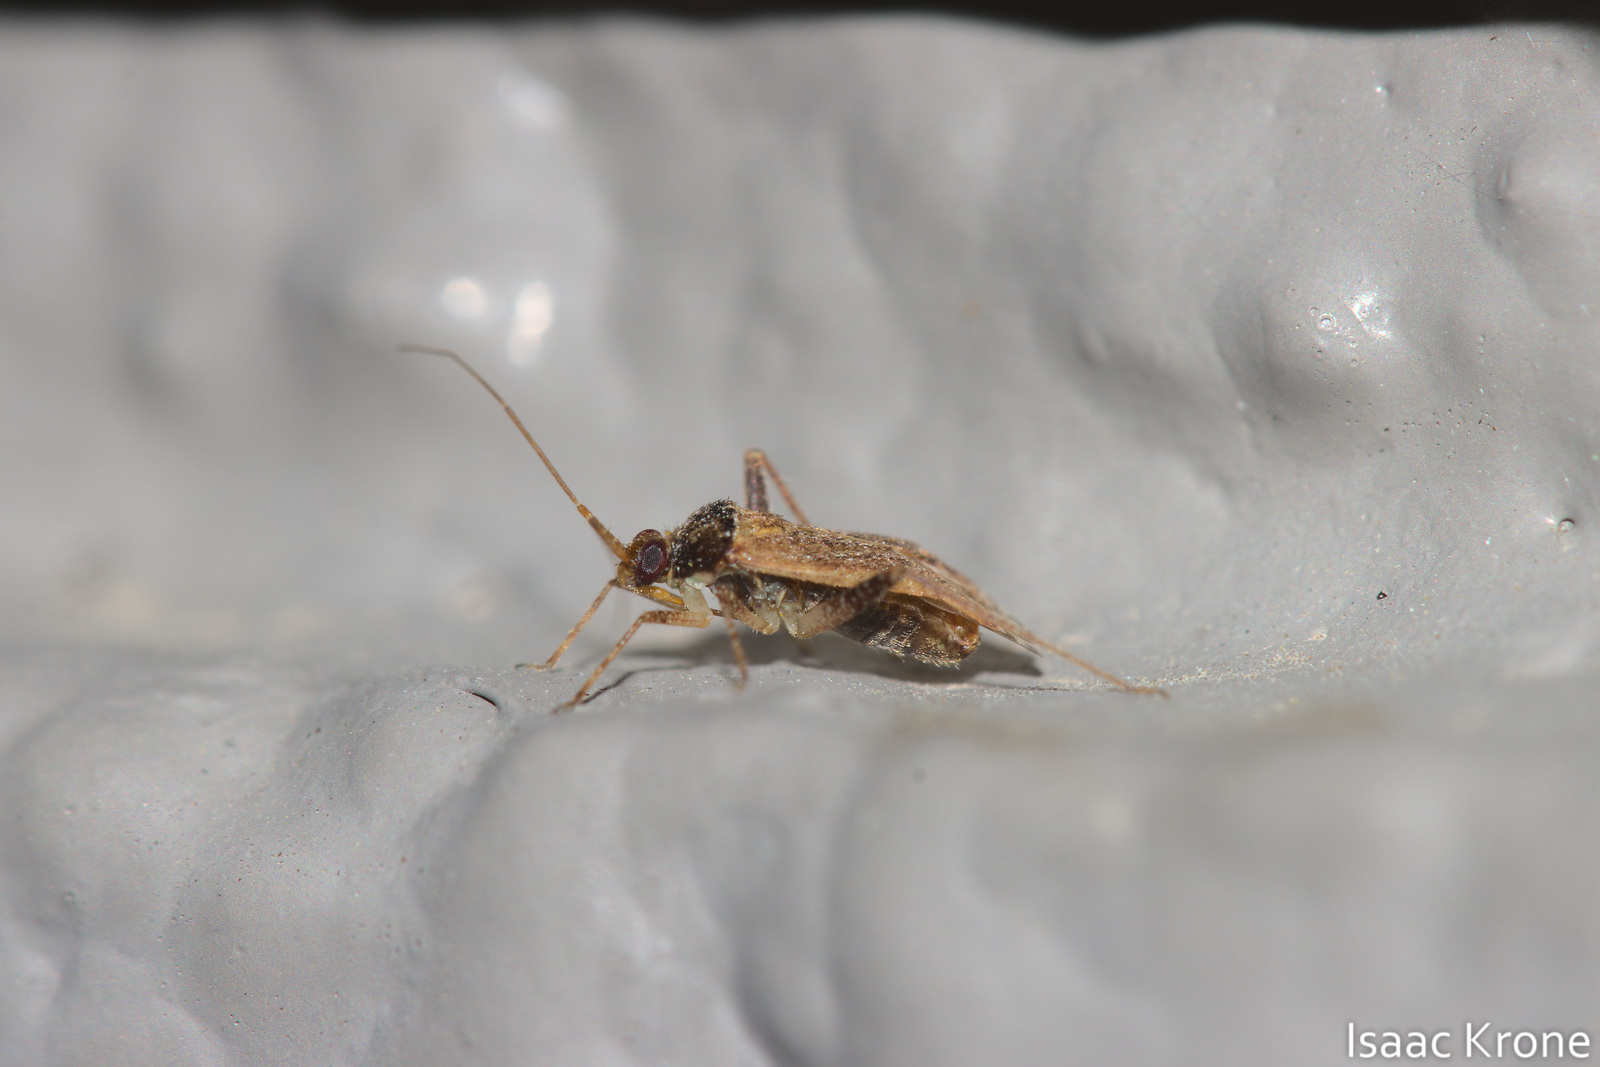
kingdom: Animalia
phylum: Arthropoda
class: Insecta
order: Hemiptera
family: Miridae
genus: Phytocoris
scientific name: Phytocoris ramosus
